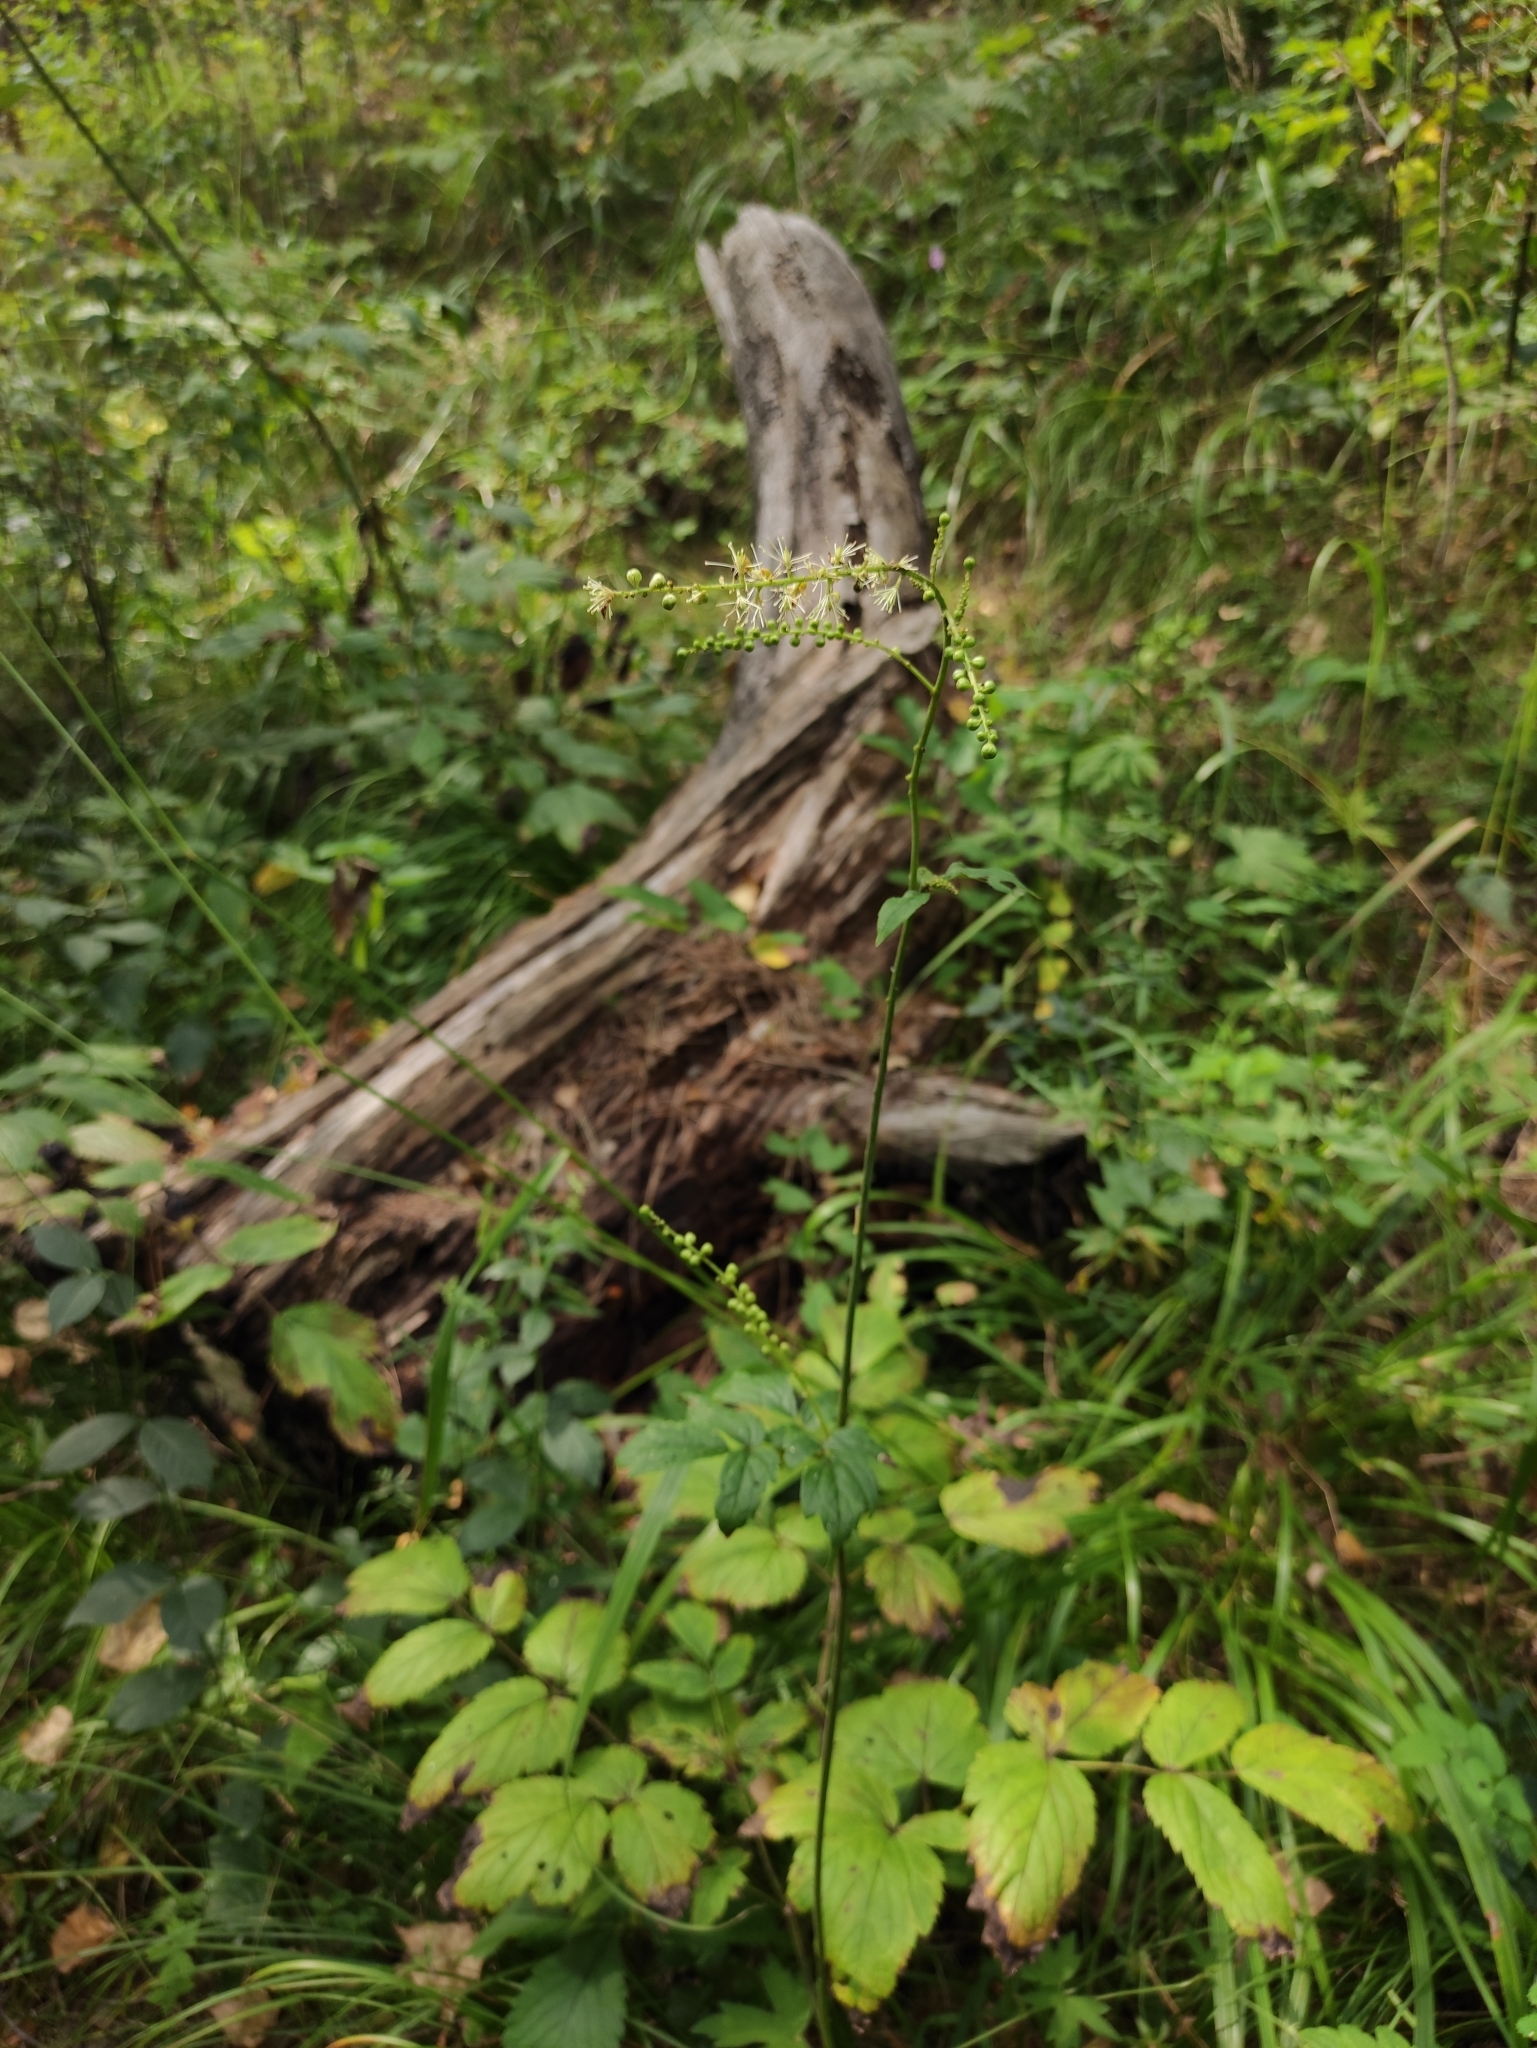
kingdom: Plantae
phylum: Tracheophyta
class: Magnoliopsida
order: Ranunculales
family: Ranunculaceae
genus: Actaea
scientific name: Actaea cimicifuga
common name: Chinese cimicifuga
